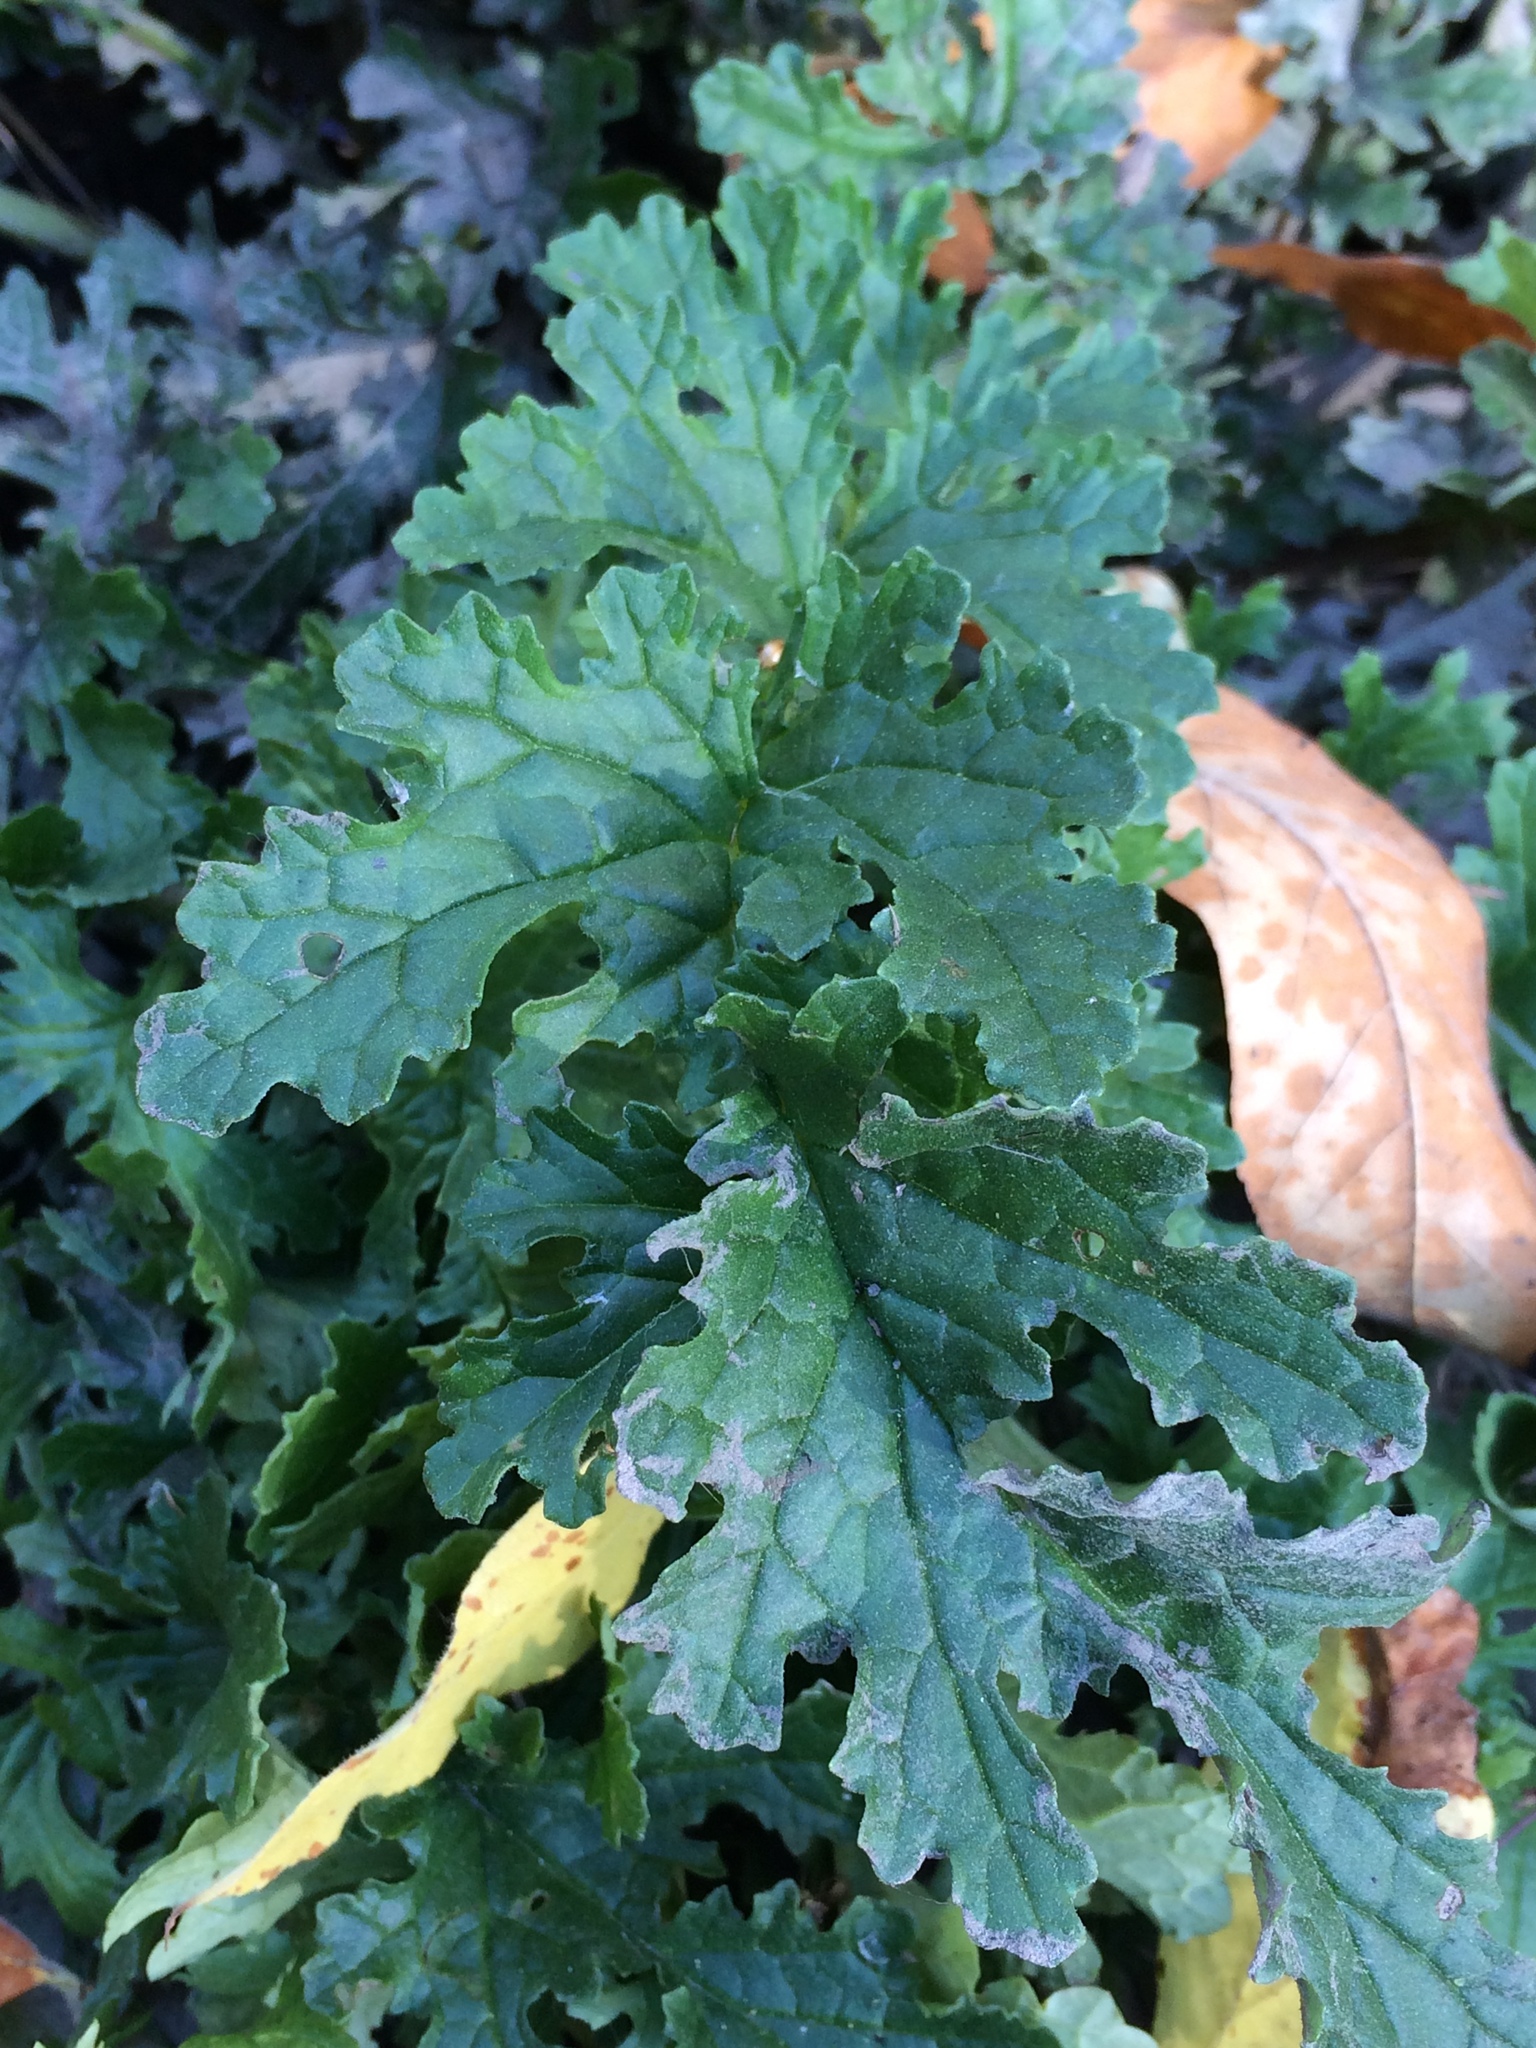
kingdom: Plantae
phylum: Tracheophyta
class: Magnoliopsida
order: Asterales
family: Asteraceae
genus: Jacobaea
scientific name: Jacobaea vulgaris
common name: Stinking willie
